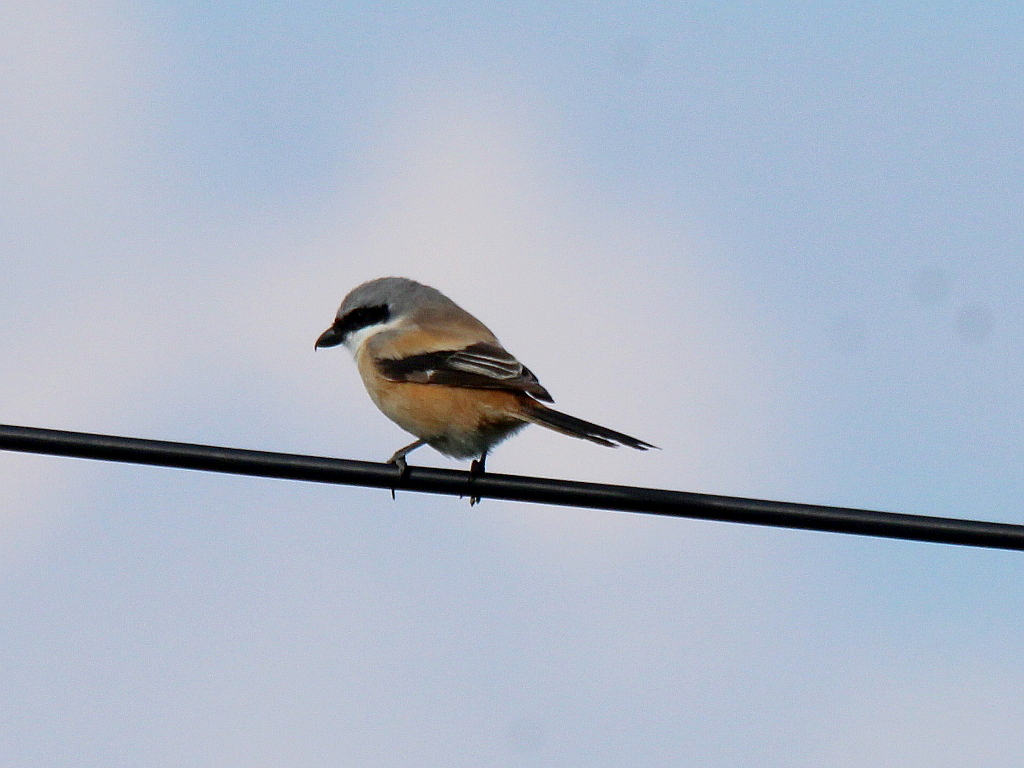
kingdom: Animalia
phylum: Chordata
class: Aves
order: Passeriformes
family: Laniidae
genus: Lanius
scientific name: Lanius schach
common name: Long-tailed shrike
